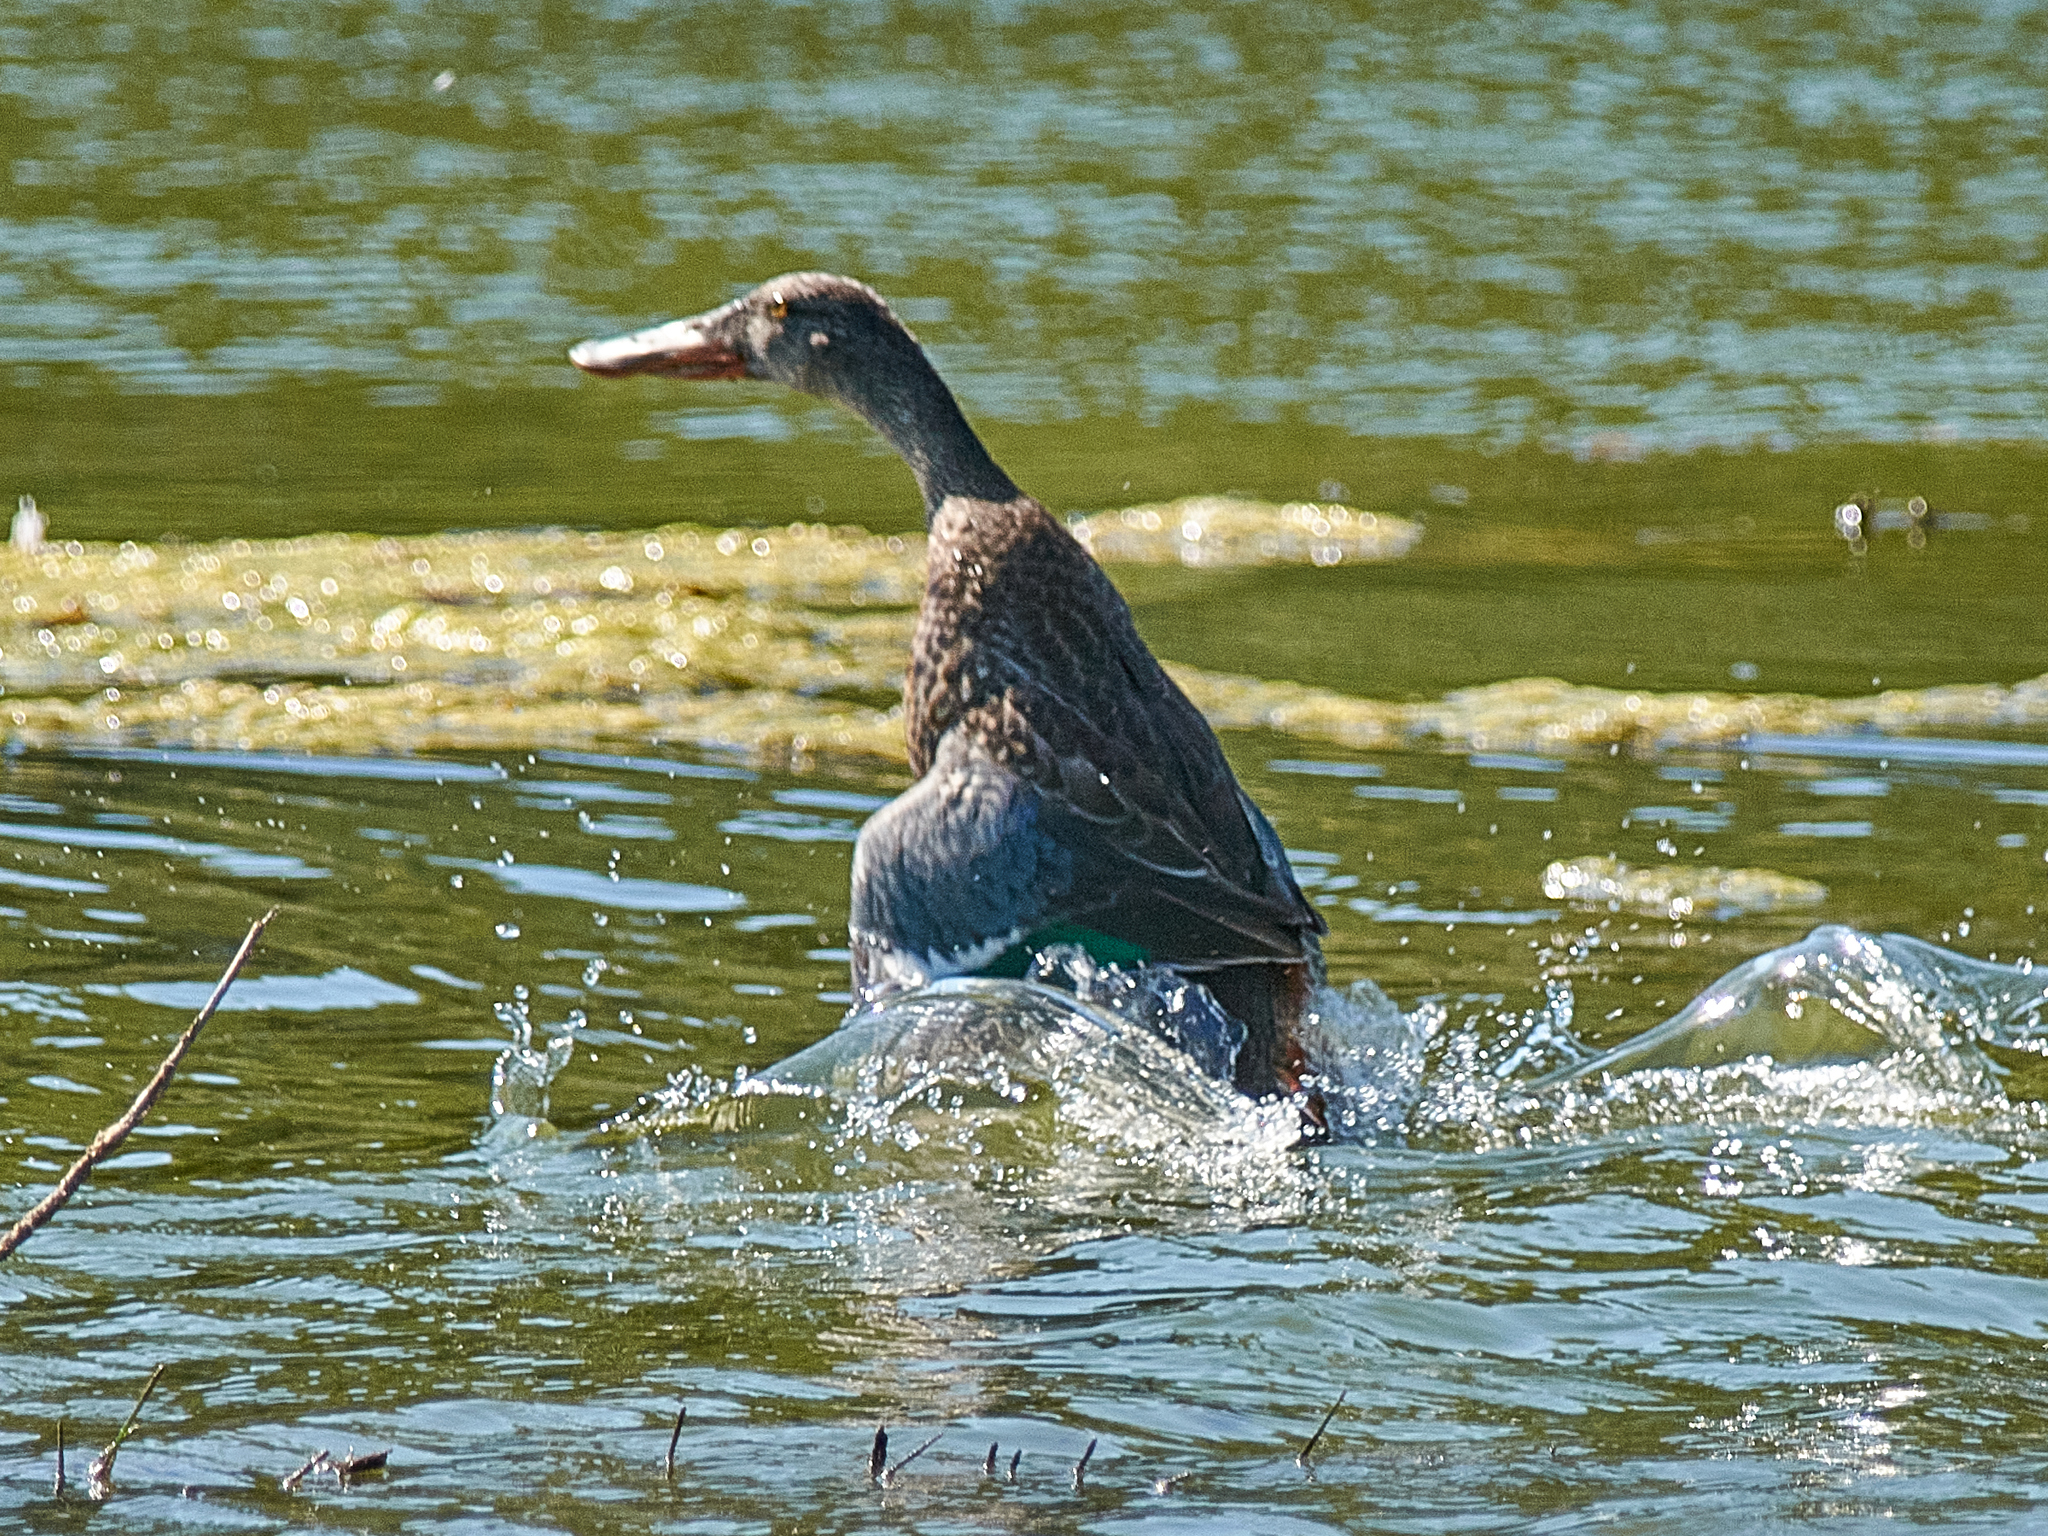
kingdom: Animalia
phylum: Chordata
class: Aves
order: Anseriformes
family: Anatidae
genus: Spatula
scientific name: Spatula clypeata
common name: Northern shoveler
